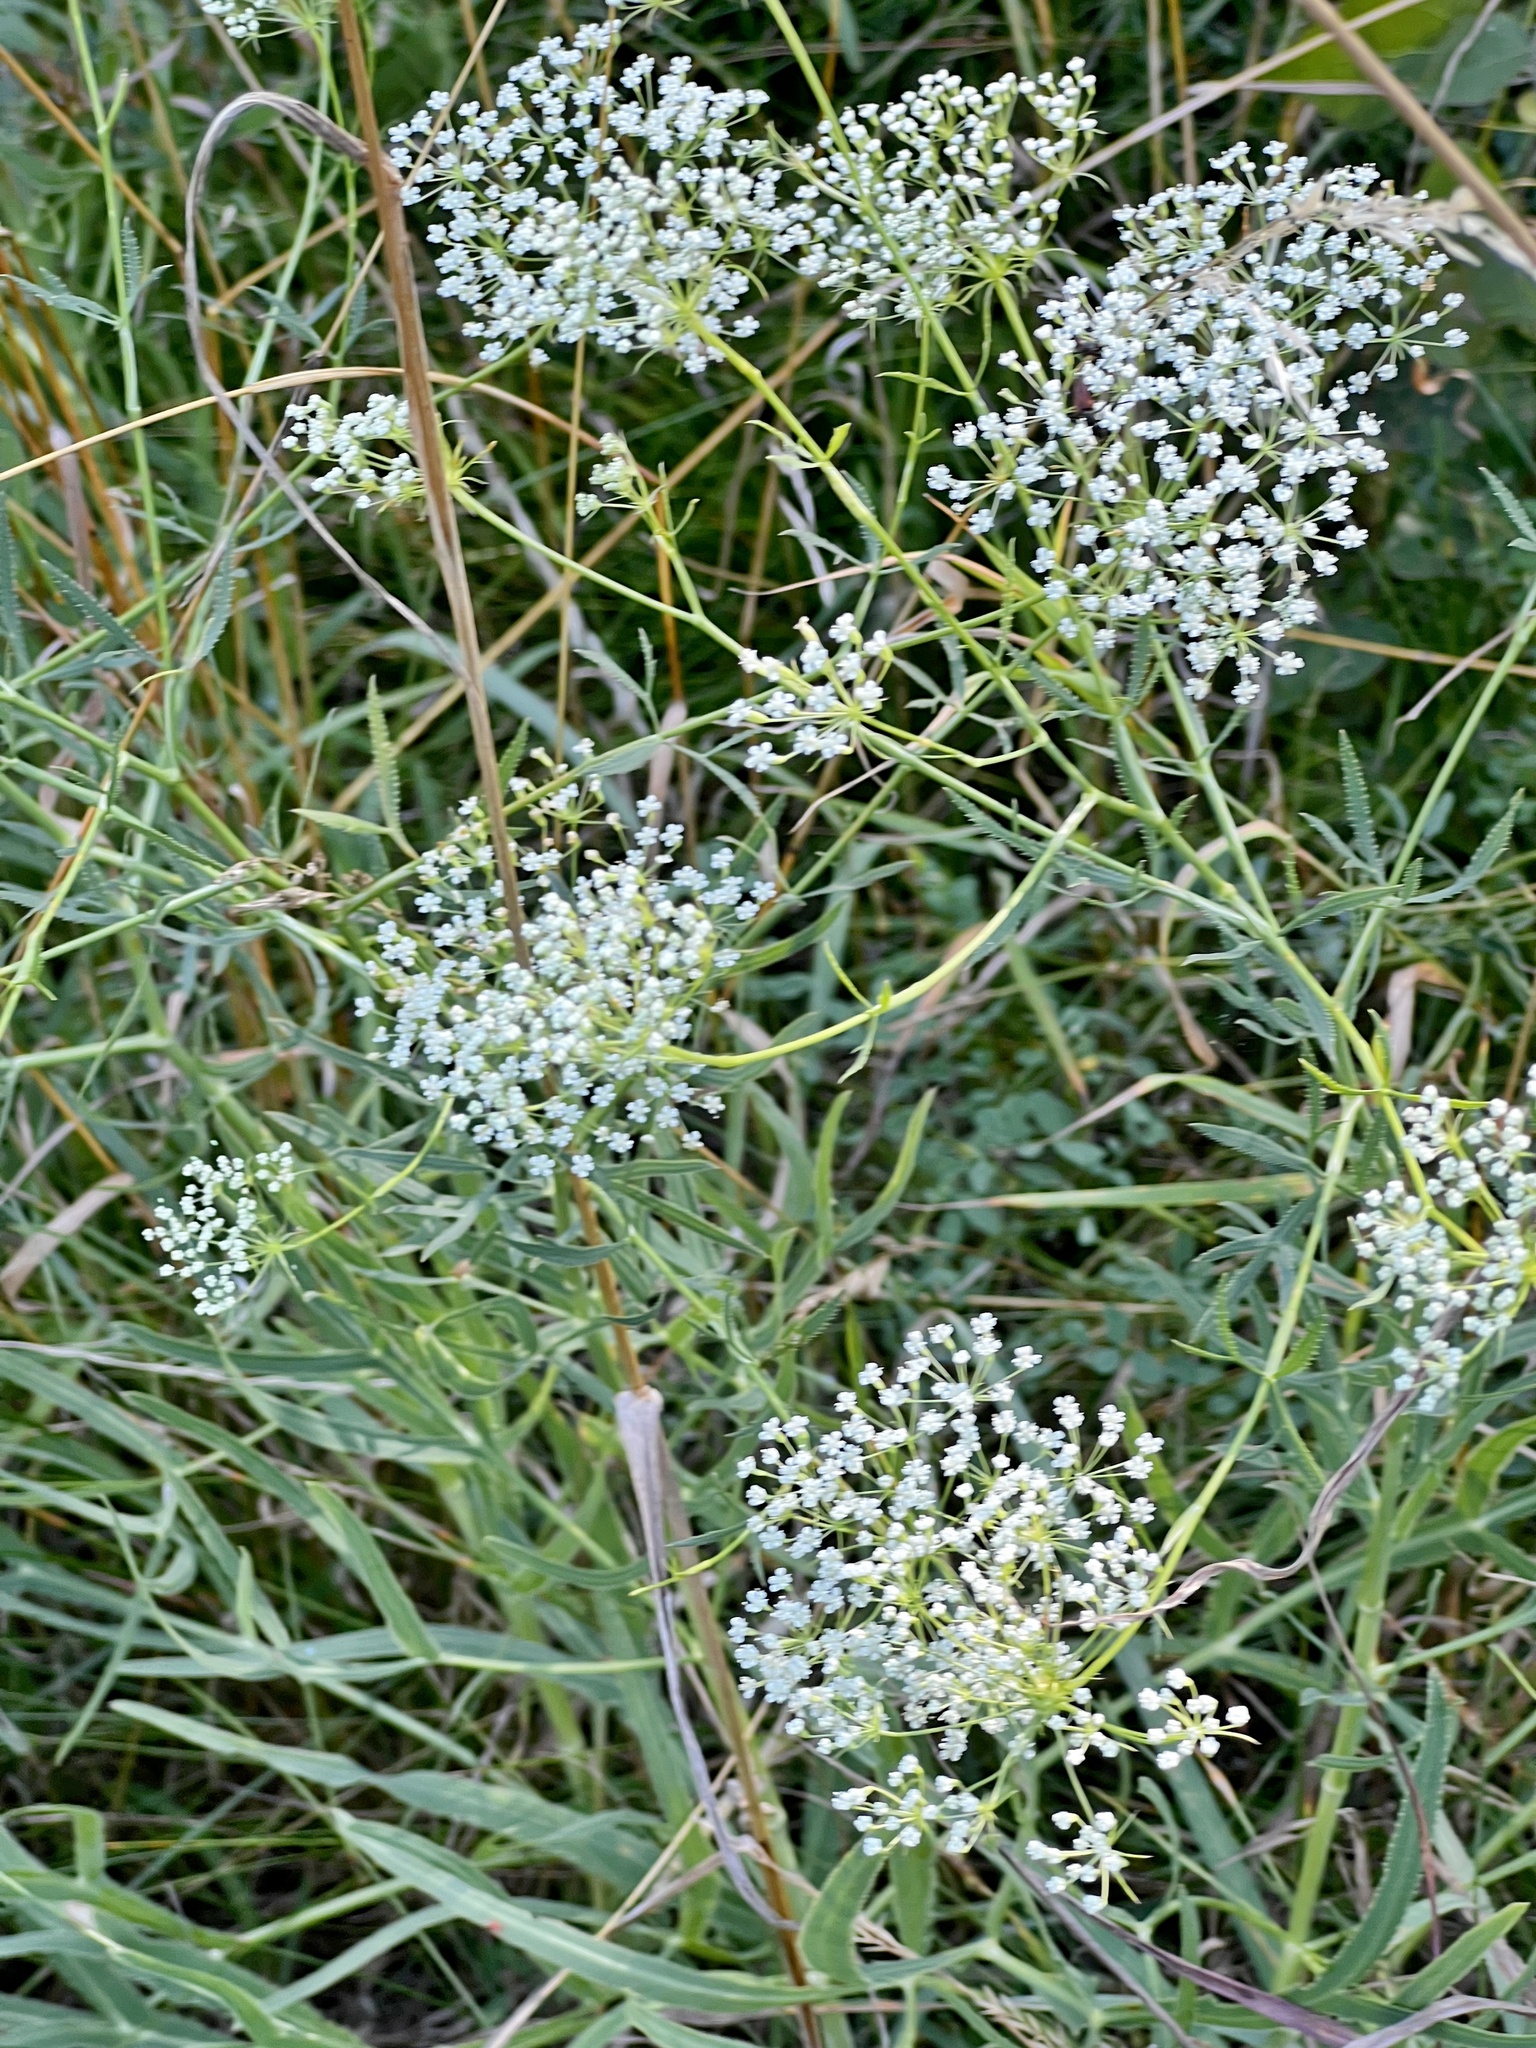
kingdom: Plantae
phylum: Tracheophyta
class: Magnoliopsida
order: Apiales
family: Apiaceae
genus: Falcaria
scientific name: Falcaria vulgaris
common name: Longleaf
